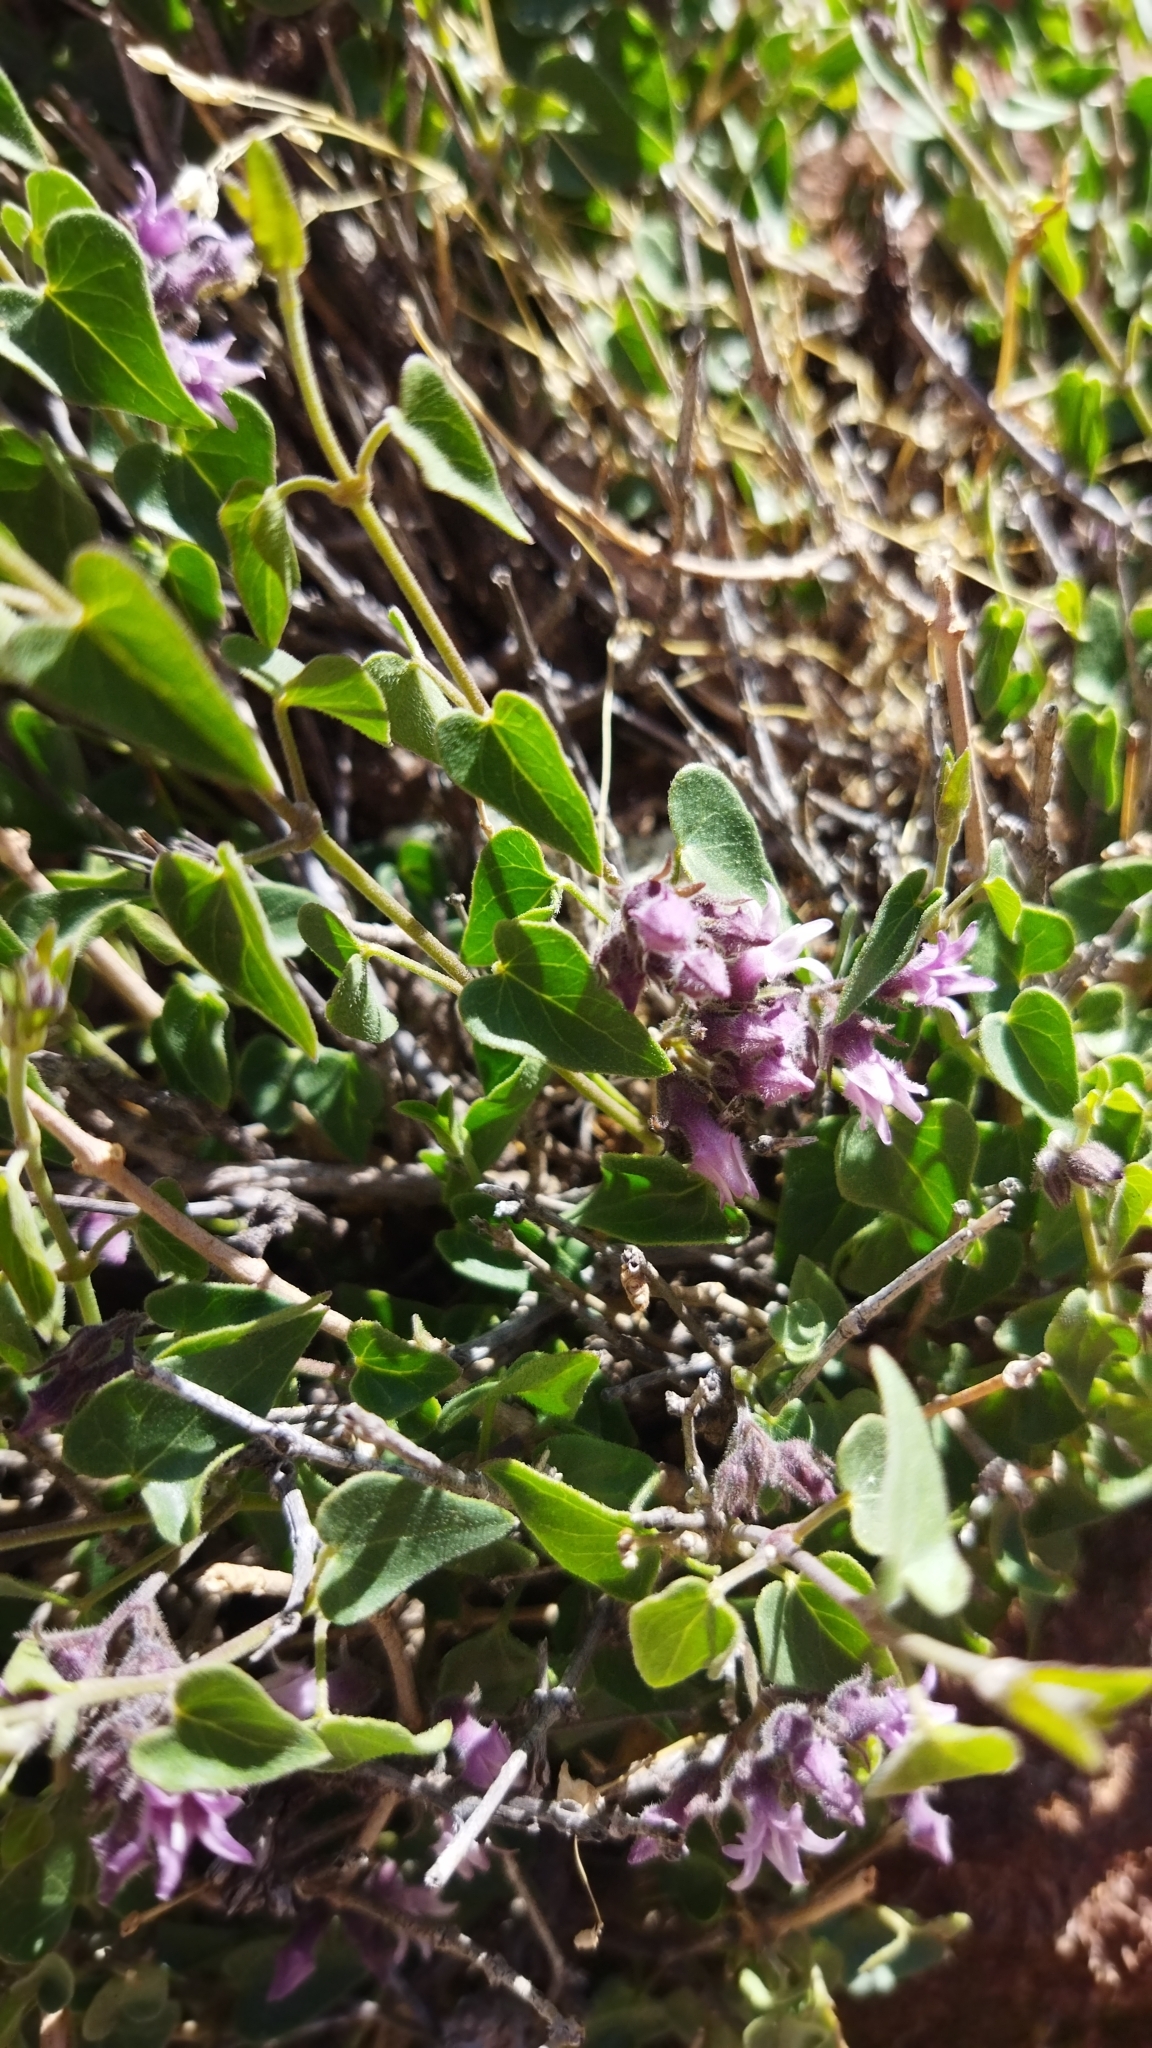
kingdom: Plantae
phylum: Tracheophyta
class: Magnoliopsida
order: Gentianales
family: Apocynaceae
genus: Philibertia
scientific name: Philibertia parviflora
